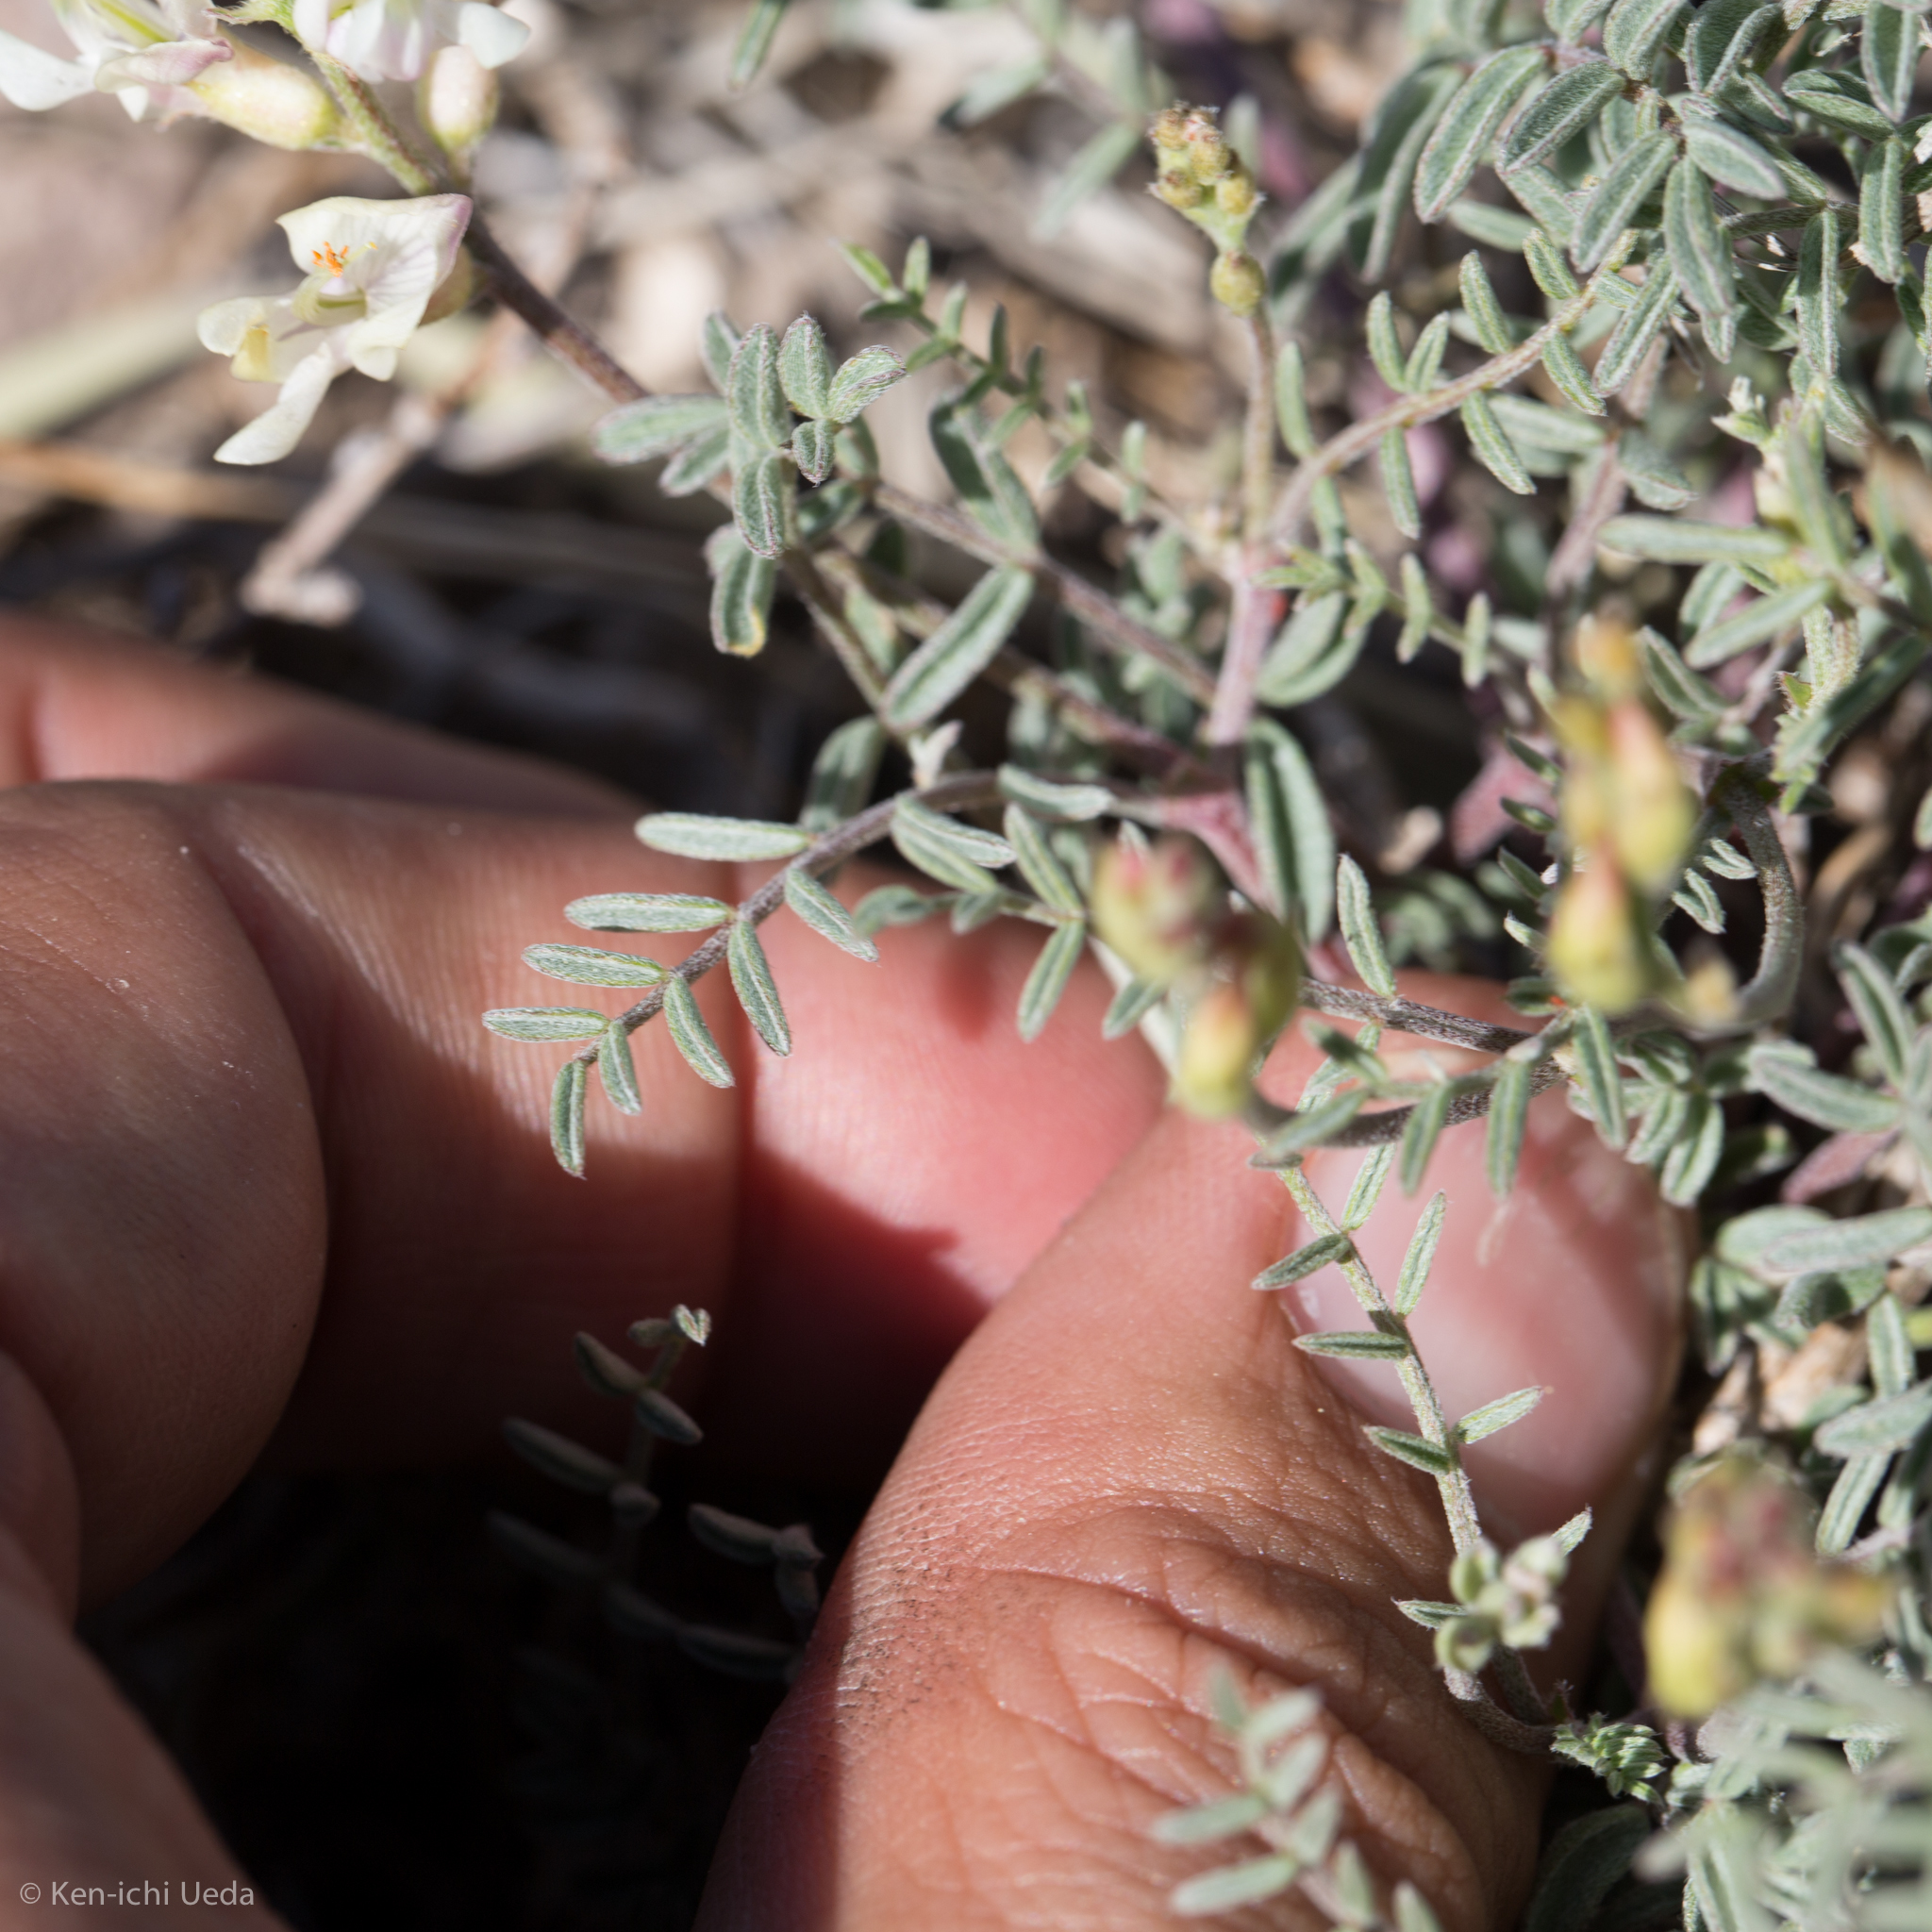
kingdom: Plantae
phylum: Tracheophyta
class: Magnoliopsida
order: Fabales
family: Fabaceae
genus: Astragalus
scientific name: Astragalus whitneyi
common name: Balloonpod milkvetch
